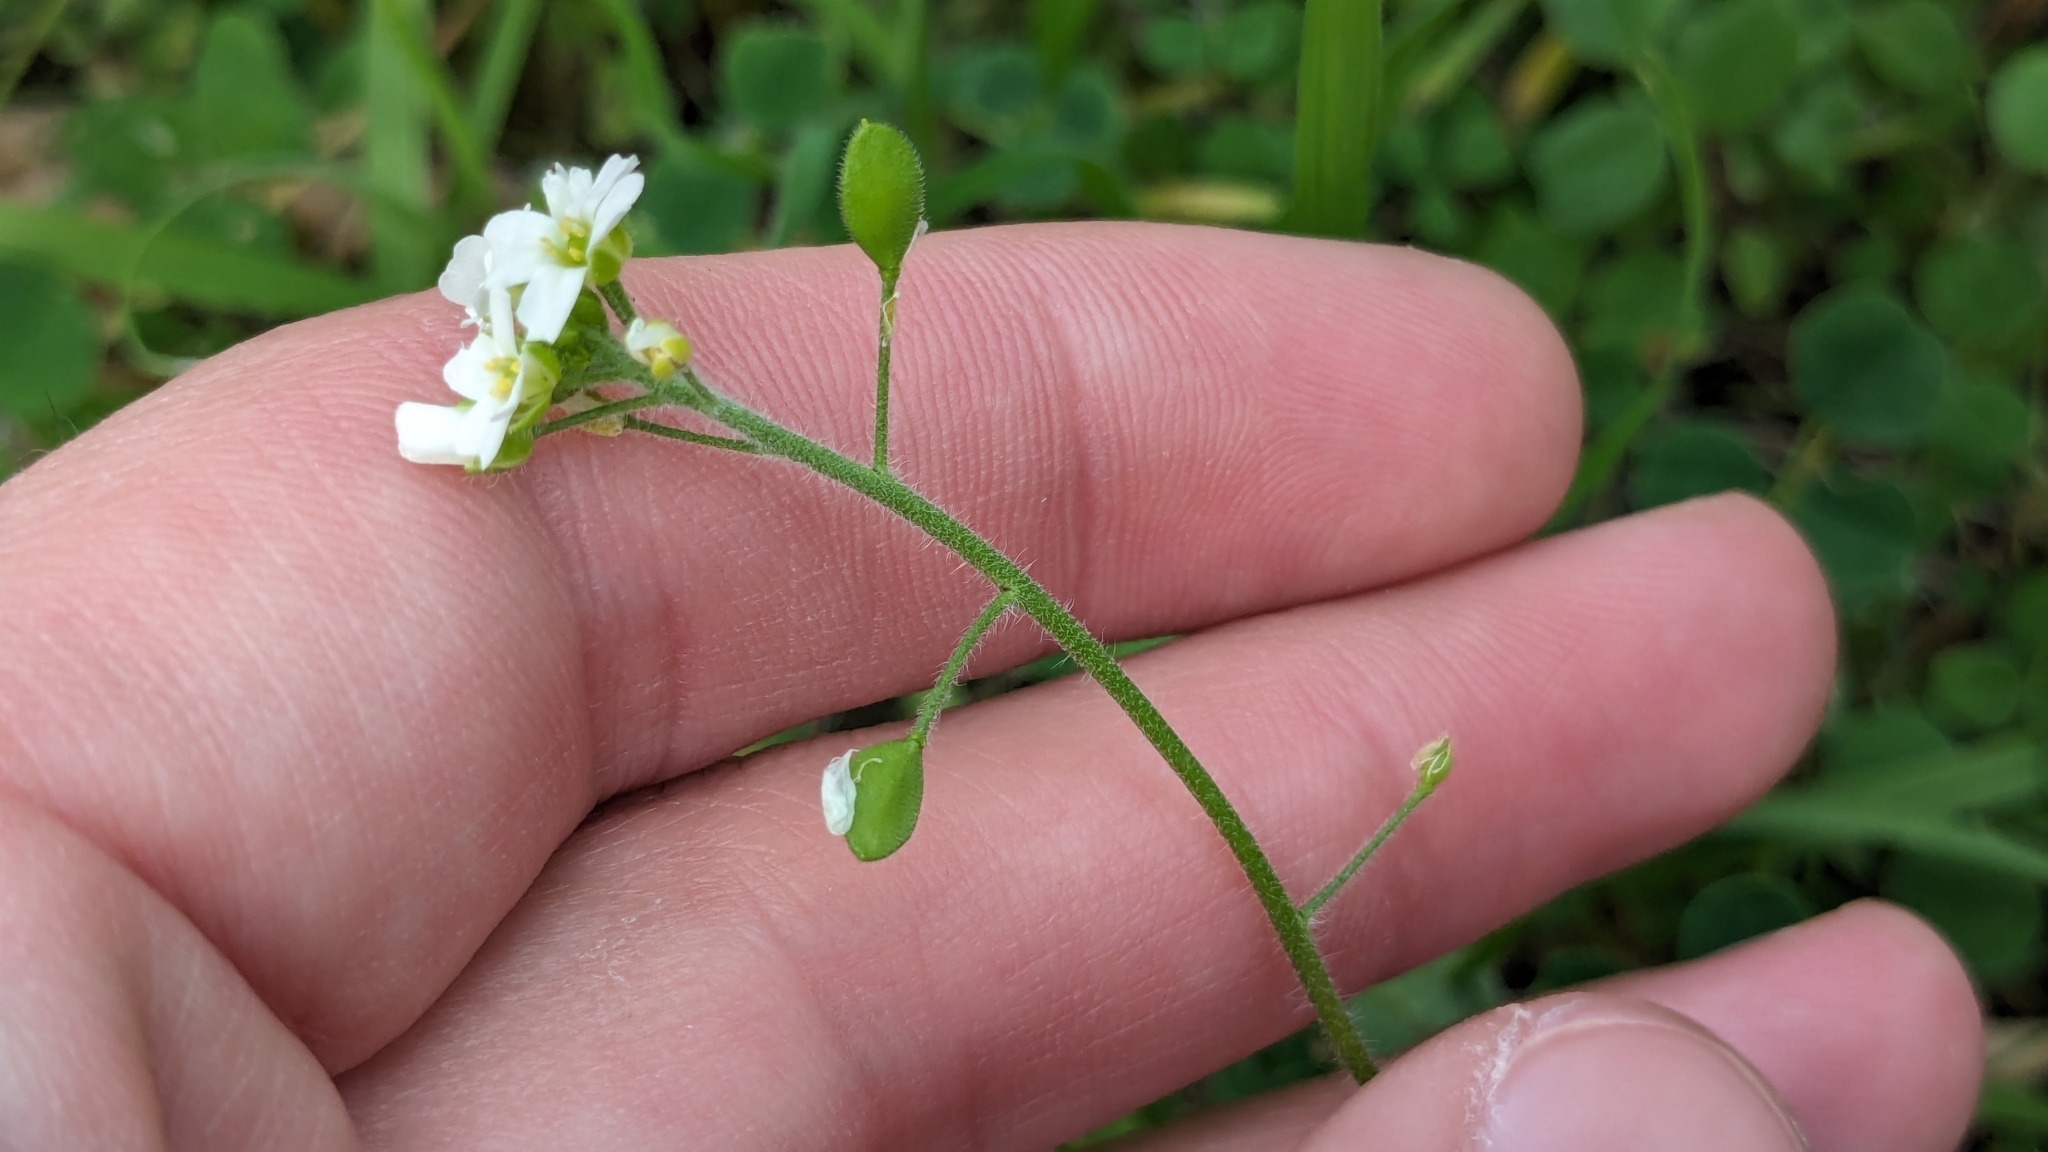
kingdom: Plantae
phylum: Tracheophyta
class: Magnoliopsida
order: Brassicales
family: Brassicaceae
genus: Tomostima
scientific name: Tomostima platycarpa
